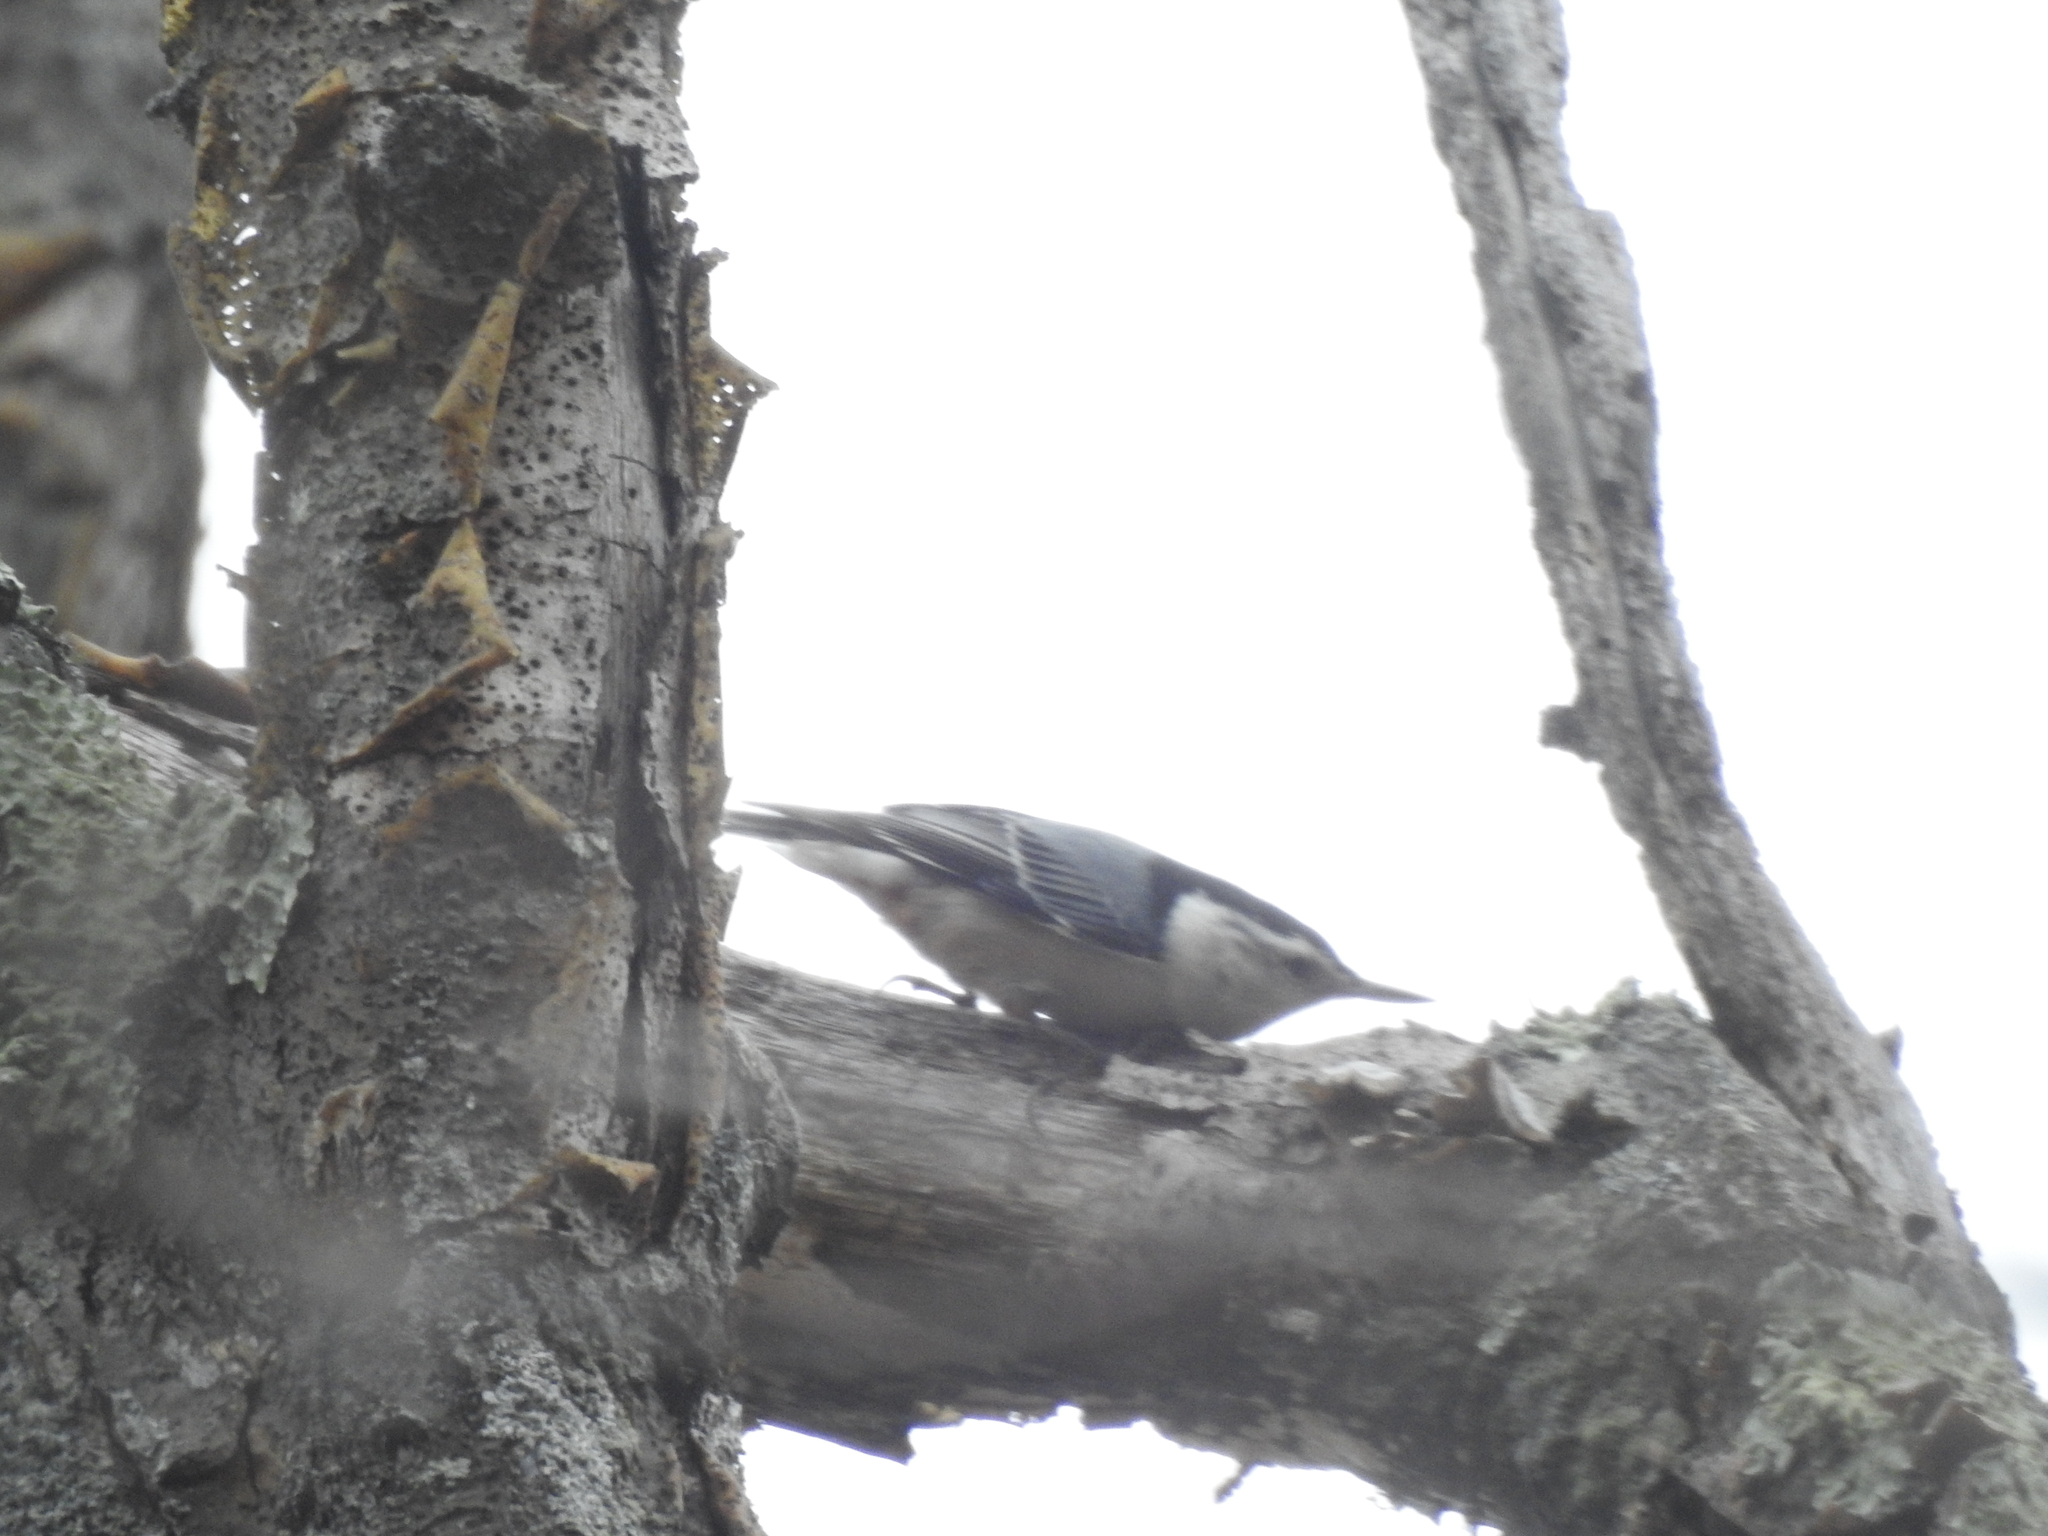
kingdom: Animalia
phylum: Chordata
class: Aves
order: Passeriformes
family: Sittidae
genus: Sitta
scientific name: Sitta carolinensis
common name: White-breasted nuthatch
